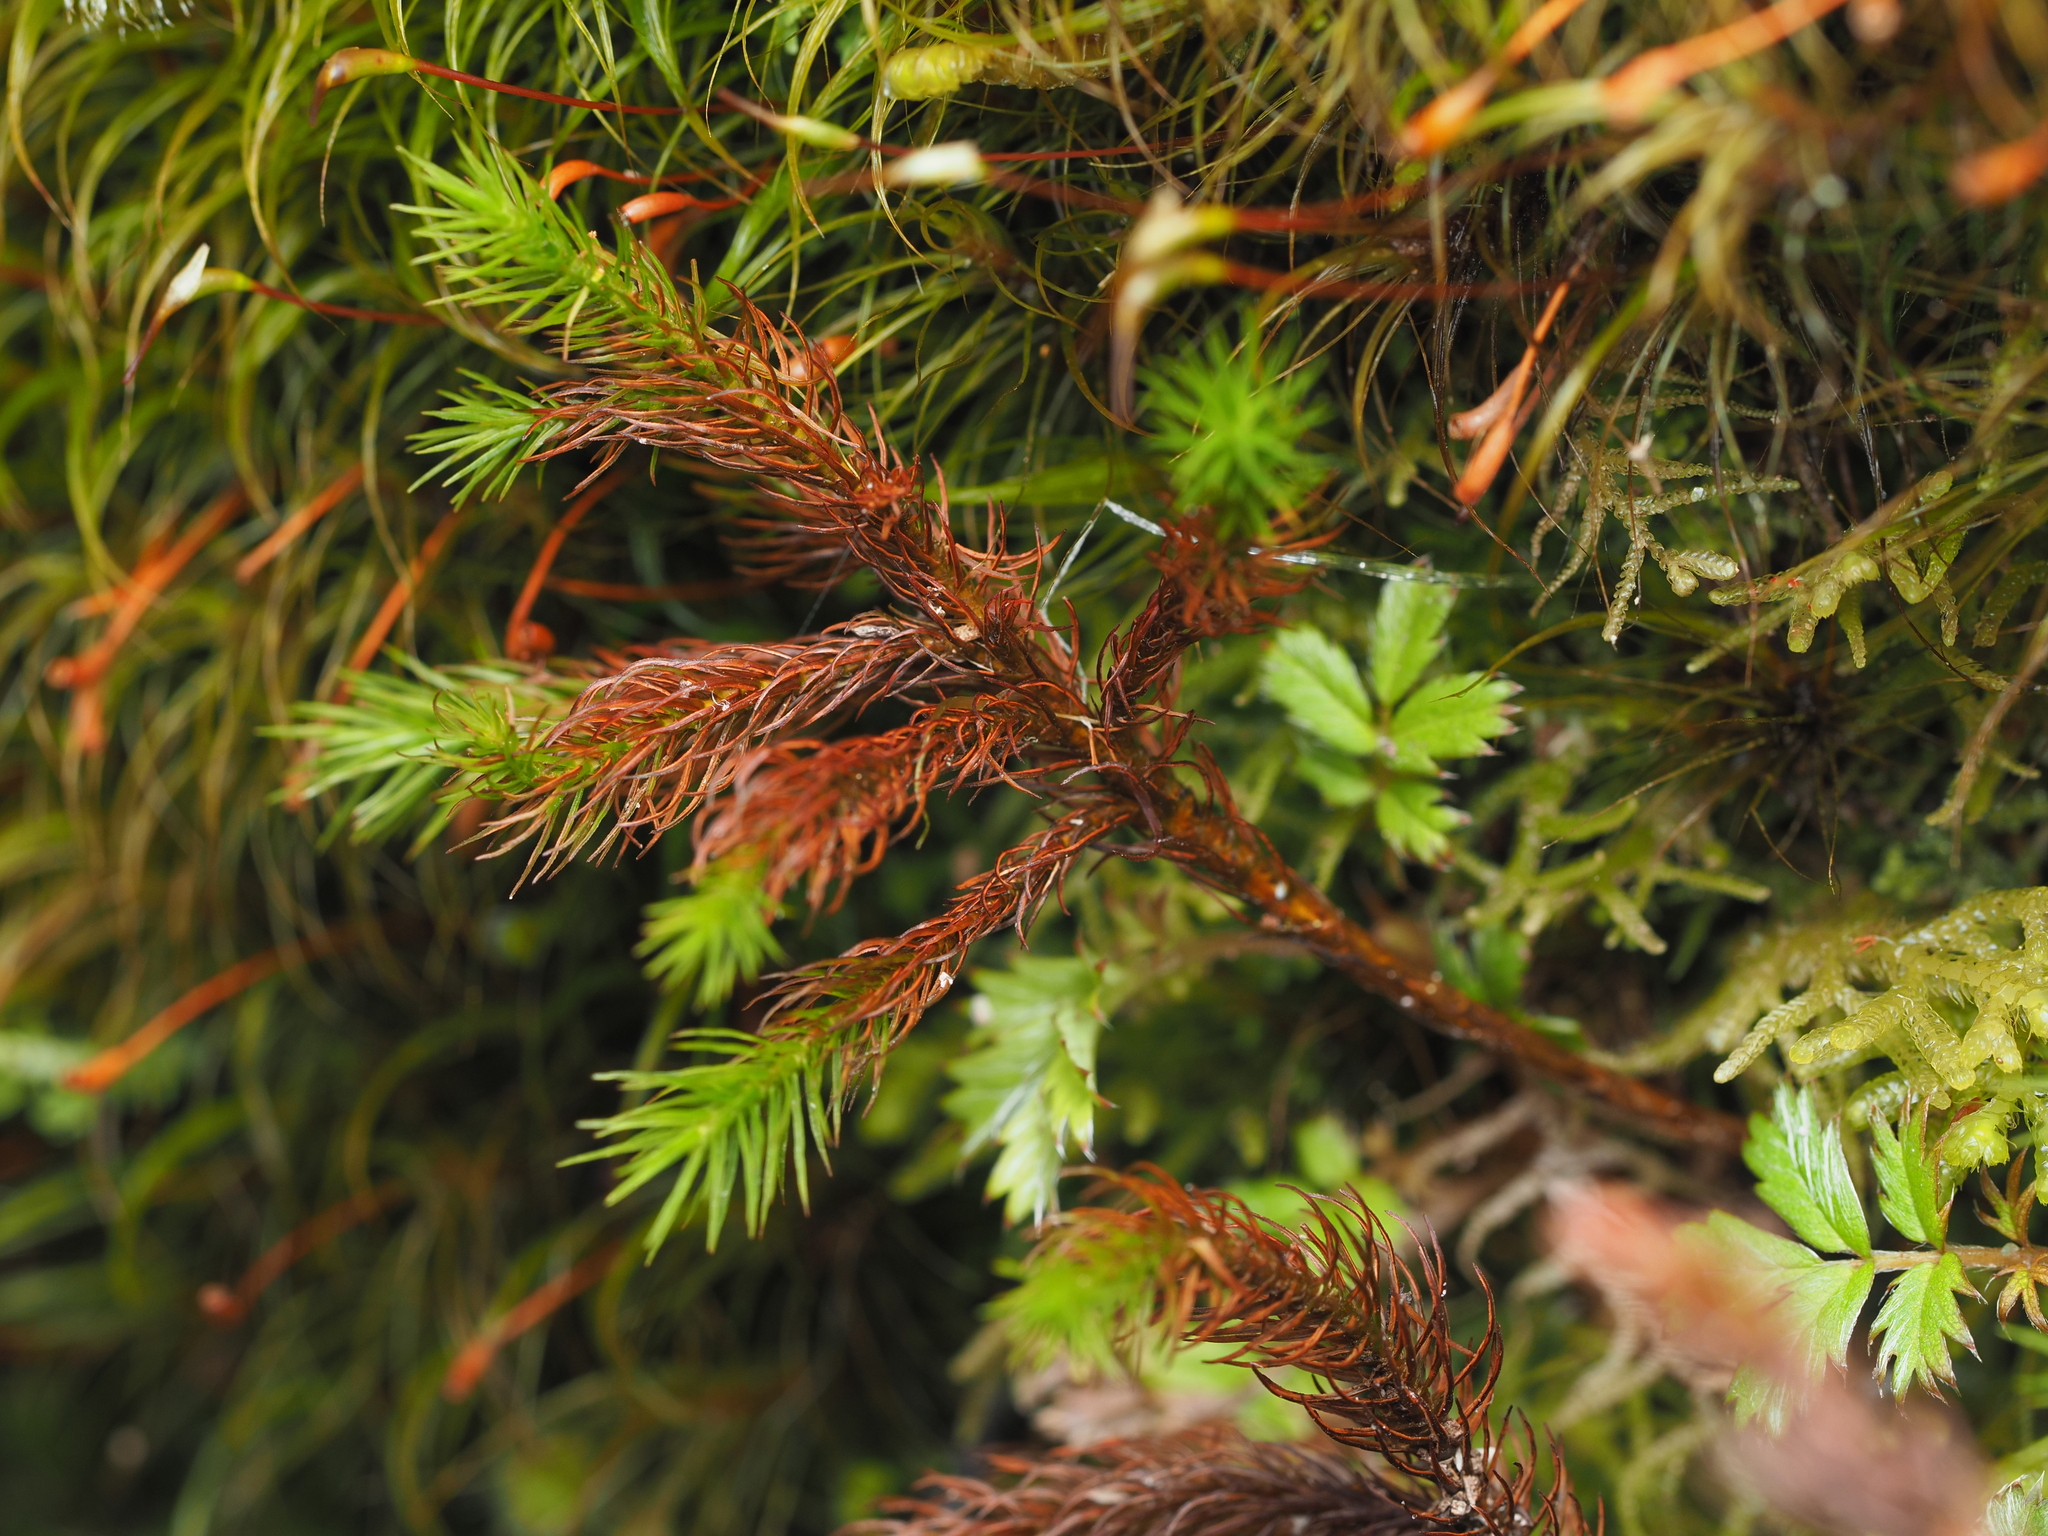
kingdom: Plantae
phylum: Bryophyta
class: Polytrichopsida
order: Polytrichales
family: Polytrichaceae
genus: Dendroligotrichum
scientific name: Dendroligotrichum tongariroense
